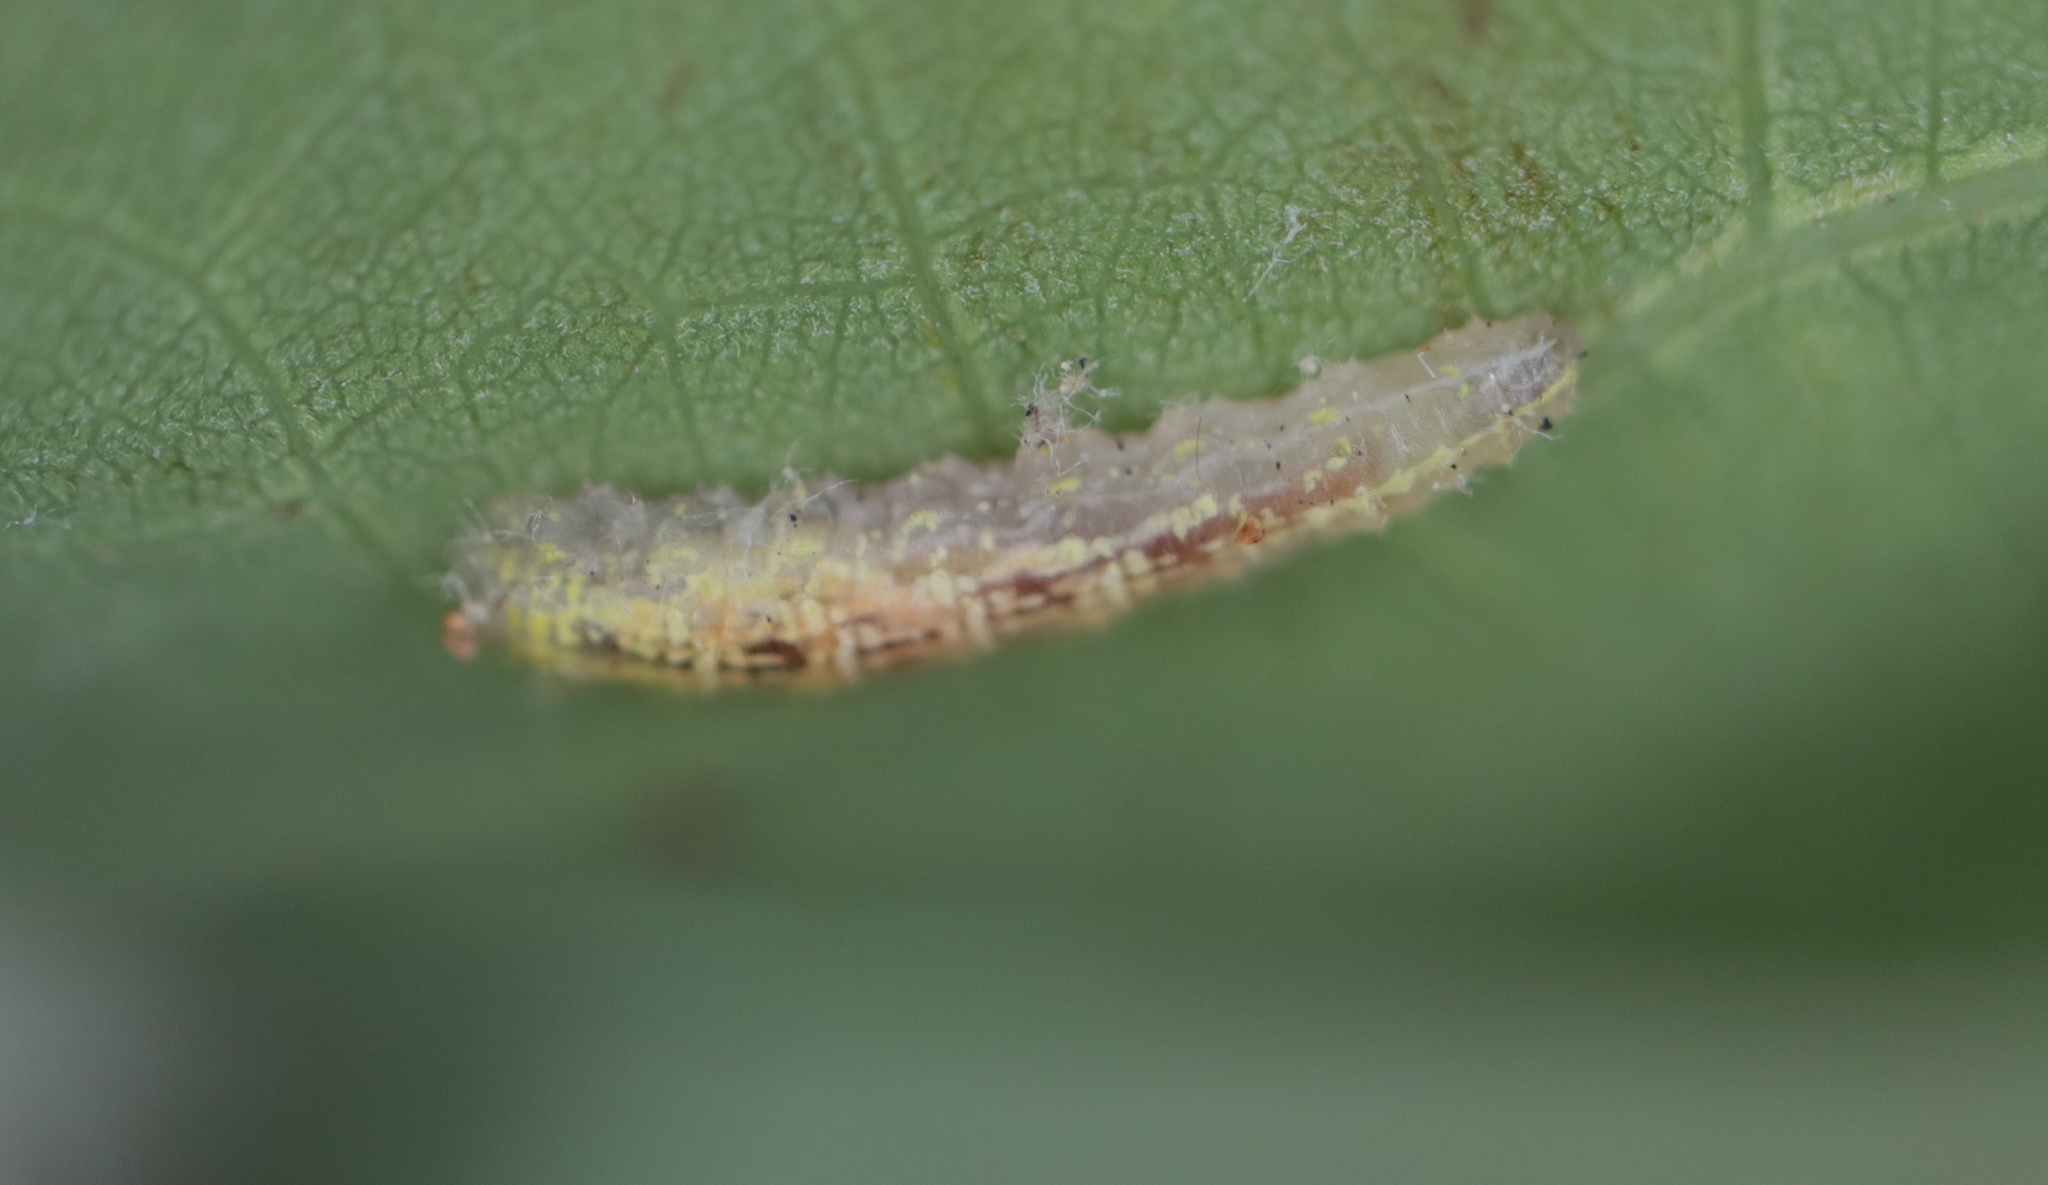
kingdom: Animalia
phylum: Arthropoda
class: Insecta
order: Diptera
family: Syrphidae
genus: Syrphus
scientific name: Syrphus
